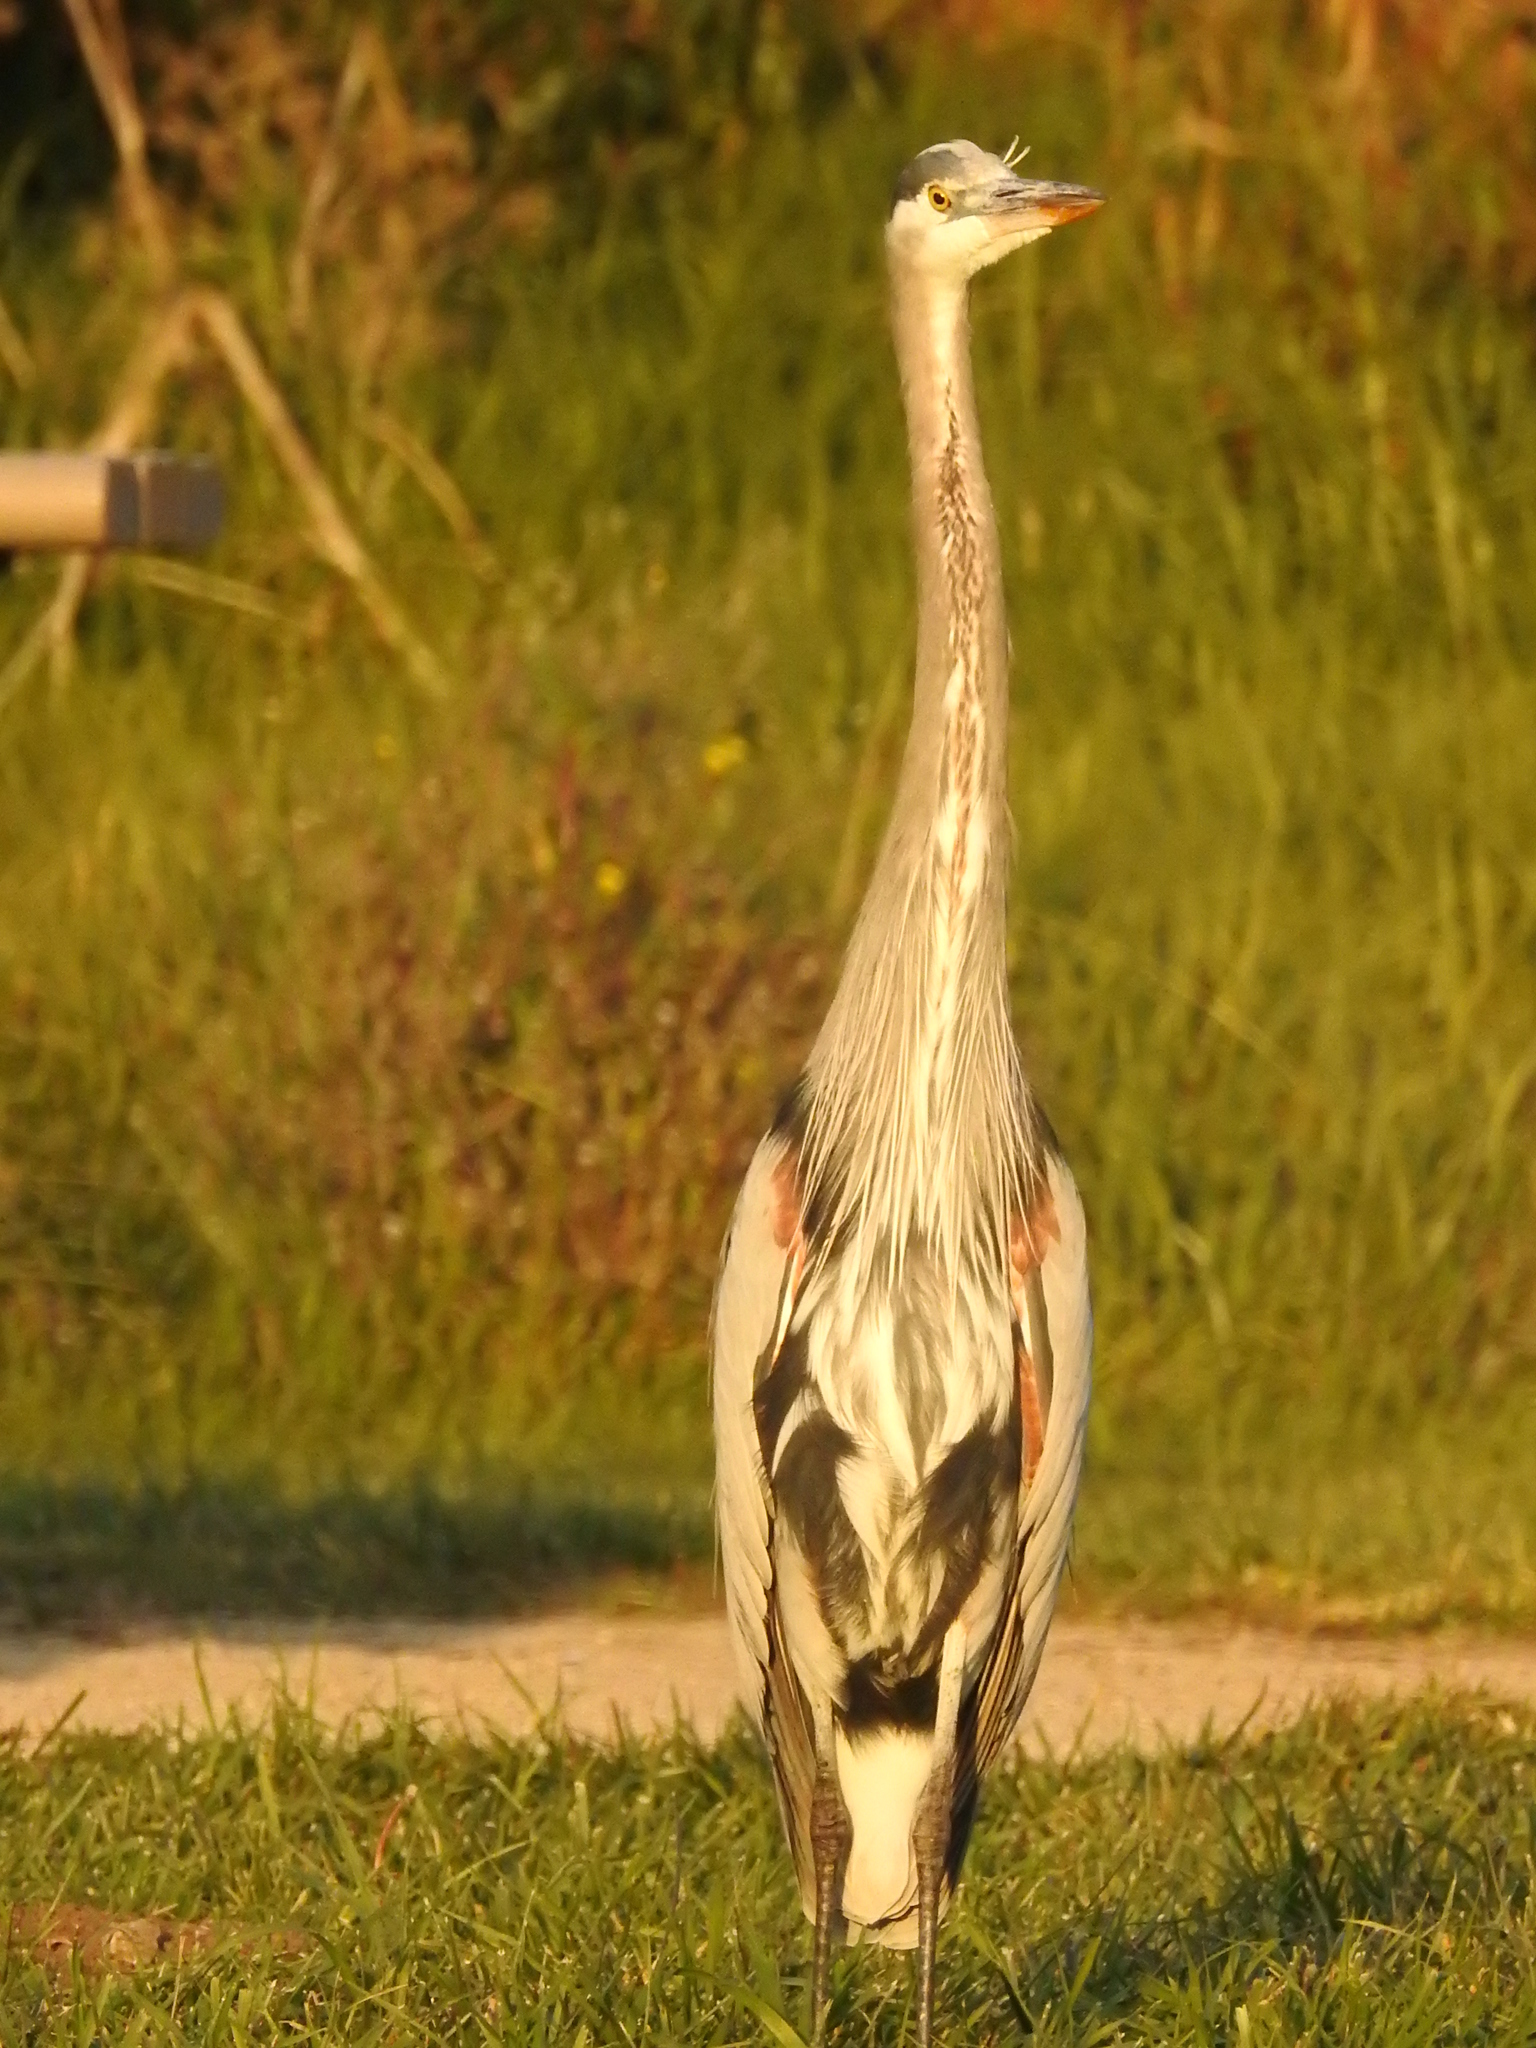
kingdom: Animalia
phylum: Chordata
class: Aves
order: Pelecaniformes
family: Ardeidae
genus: Ardea
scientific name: Ardea herodias
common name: Great blue heron
